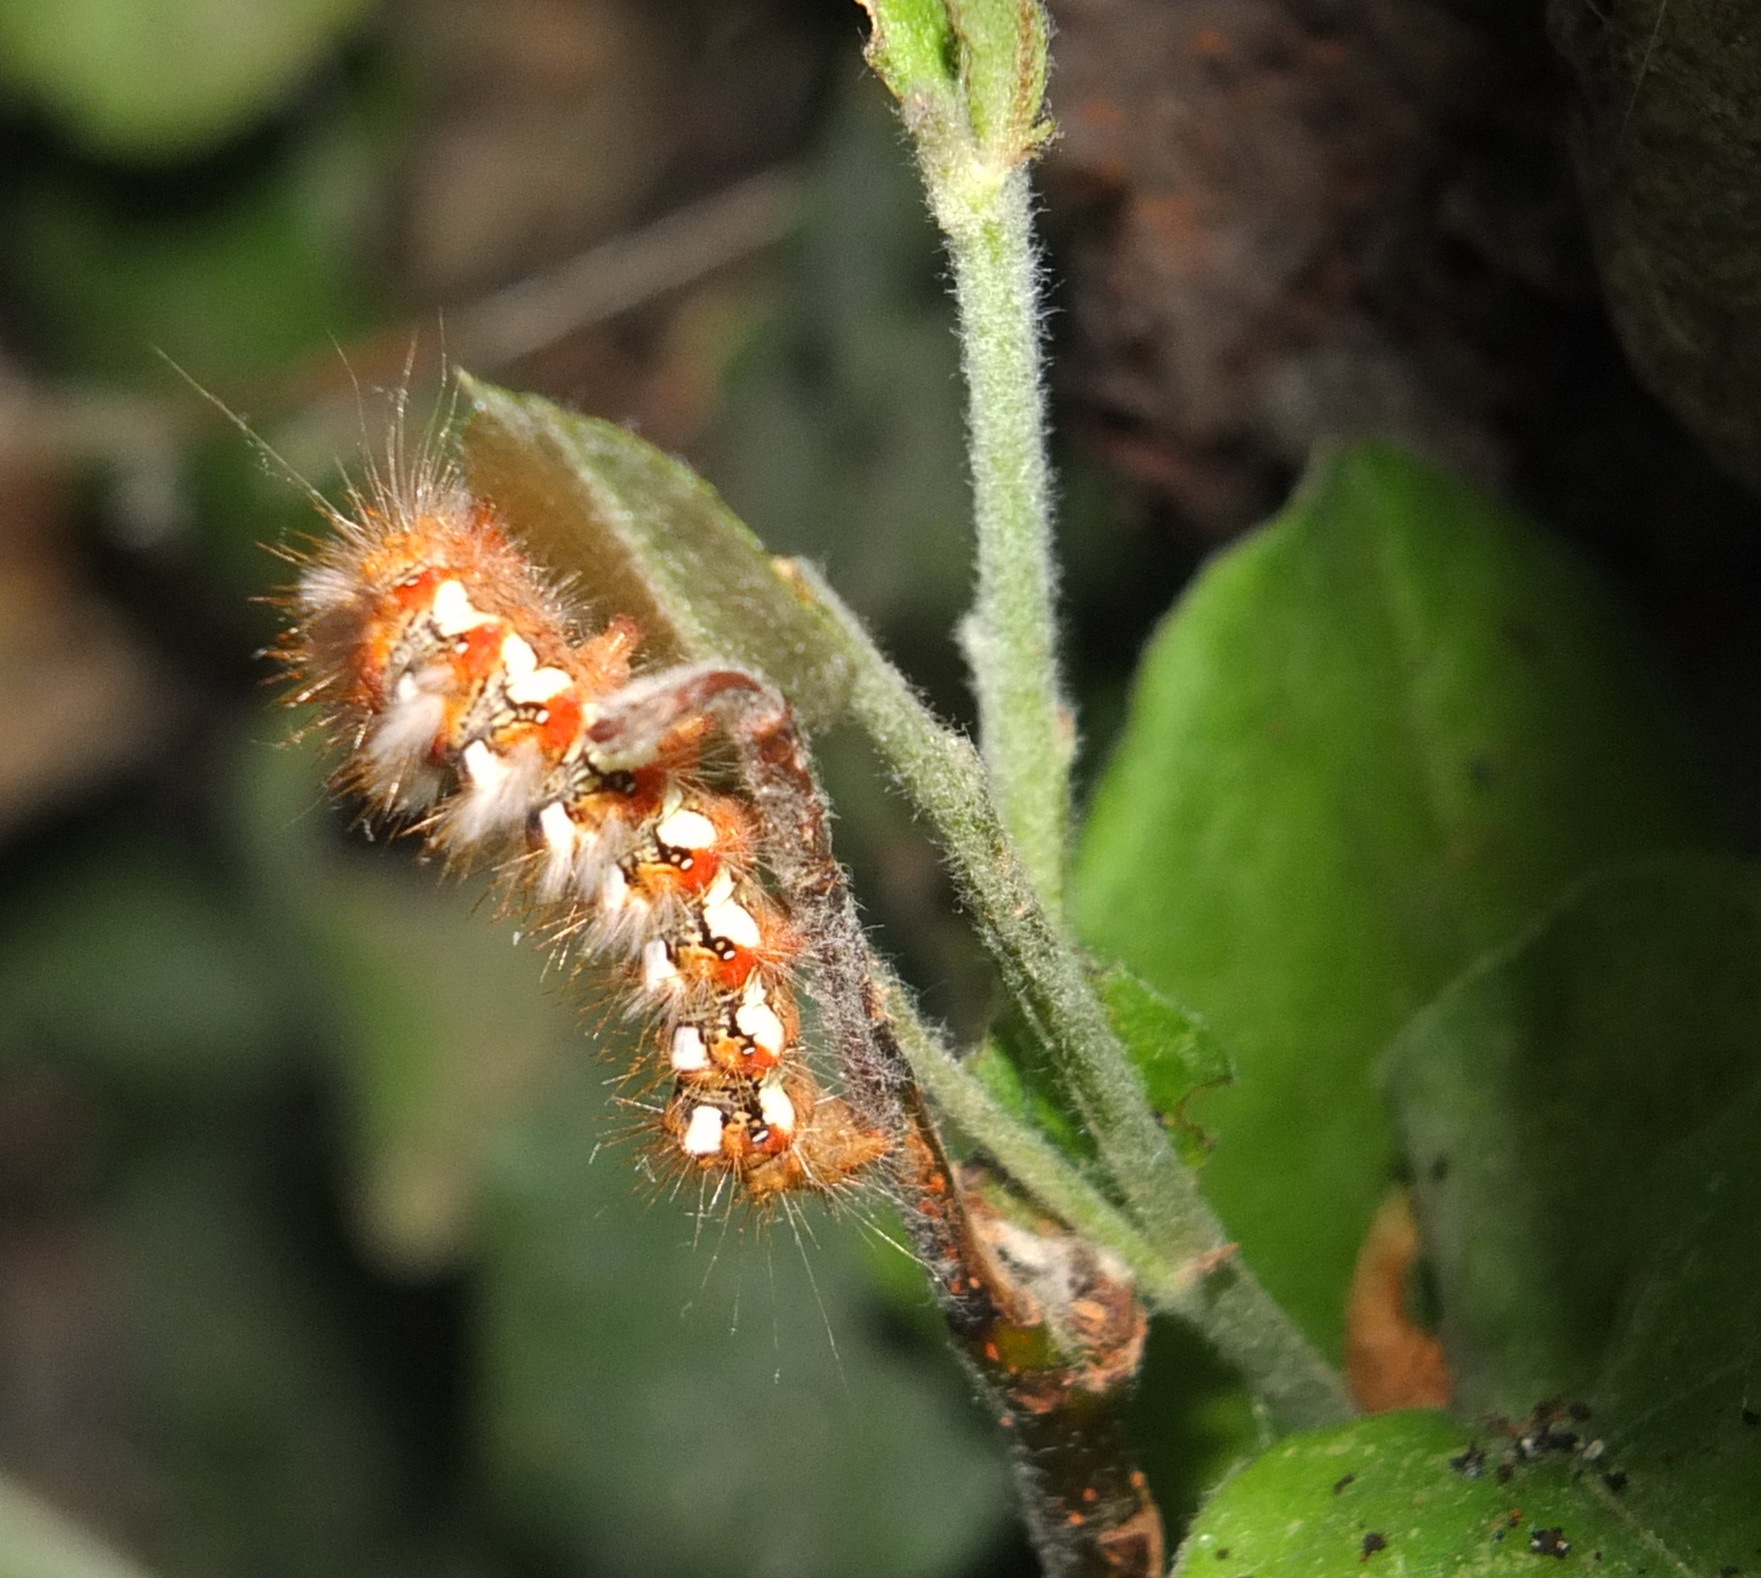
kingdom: Animalia
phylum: Arthropoda
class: Insecta
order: Lepidoptera
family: Noctuidae
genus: Acronicta
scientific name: Acronicta rumicis
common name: Knot grass
